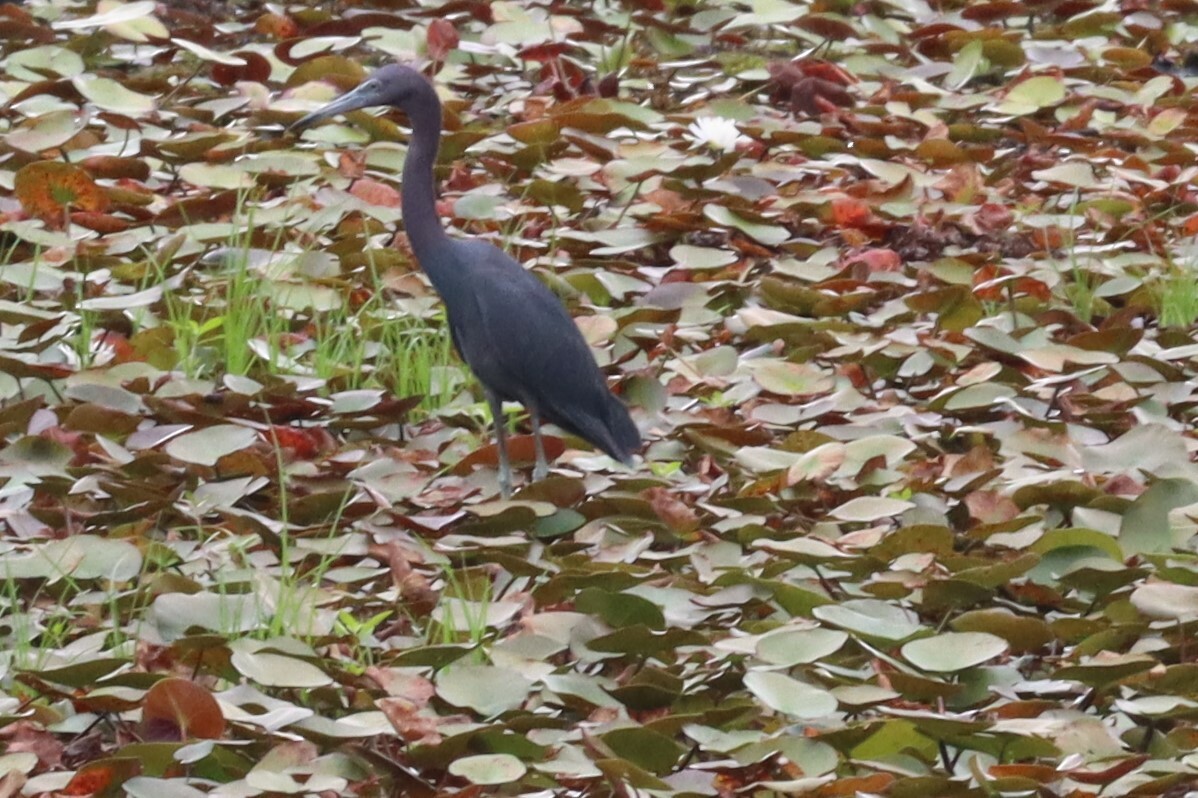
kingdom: Animalia
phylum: Chordata
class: Aves
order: Pelecaniformes
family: Ardeidae
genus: Egretta
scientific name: Egretta caerulea
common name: Little blue heron
